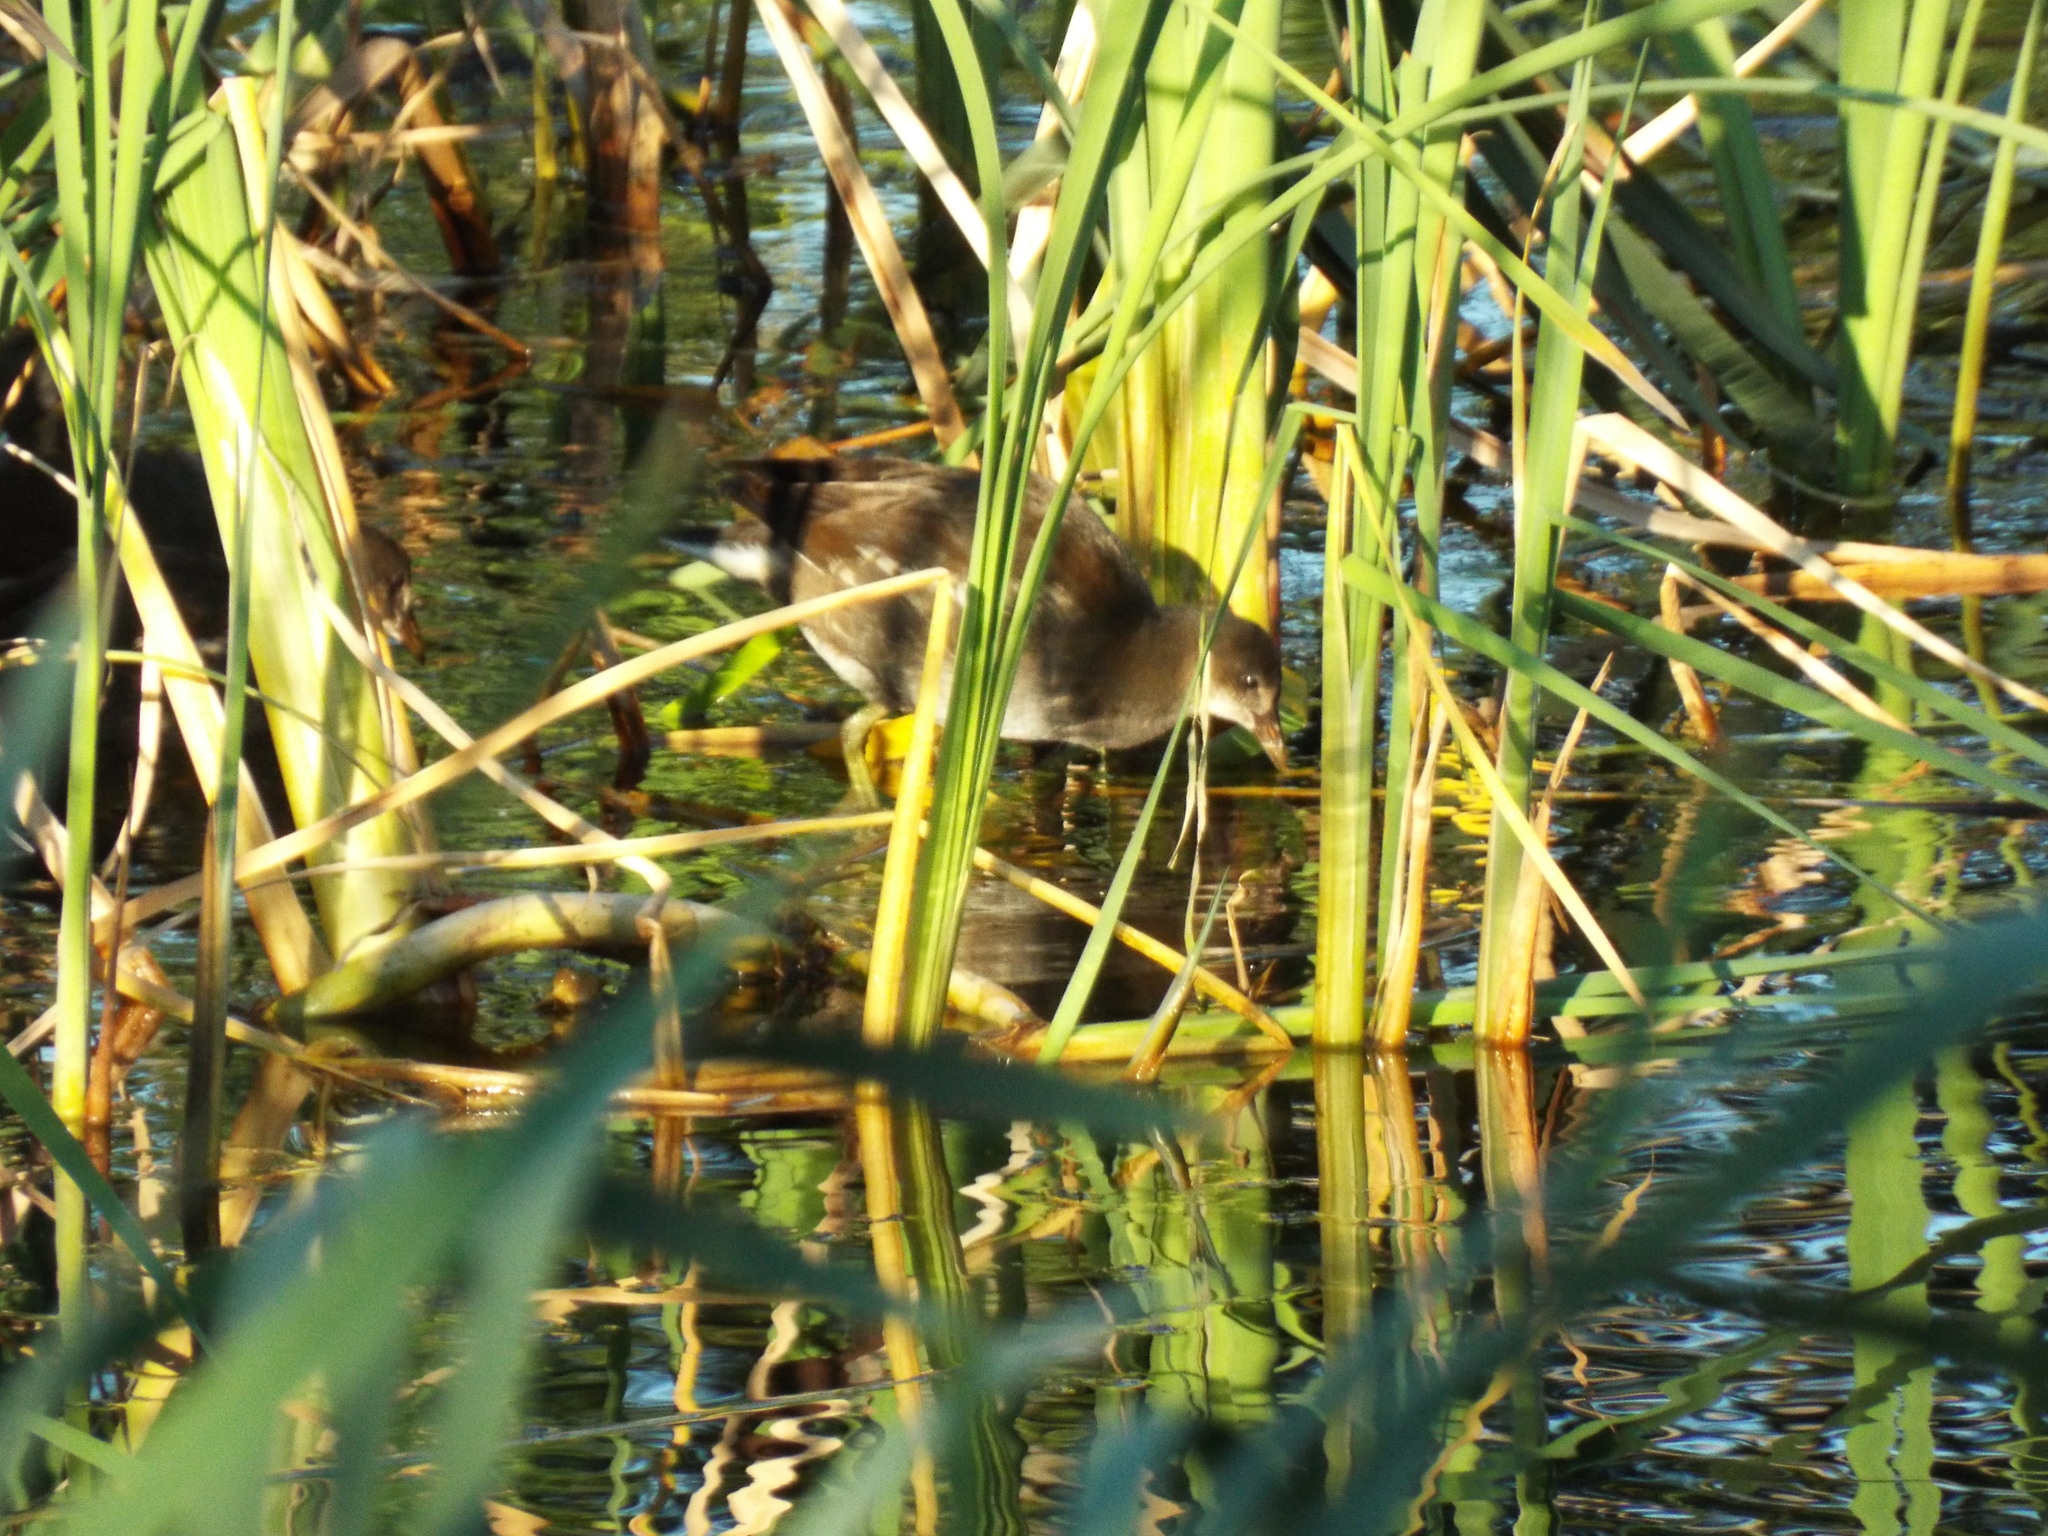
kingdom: Animalia
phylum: Chordata
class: Aves
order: Gruiformes
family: Rallidae
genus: Gallinula
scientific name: Gallinula chloropus
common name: Common moorhen
